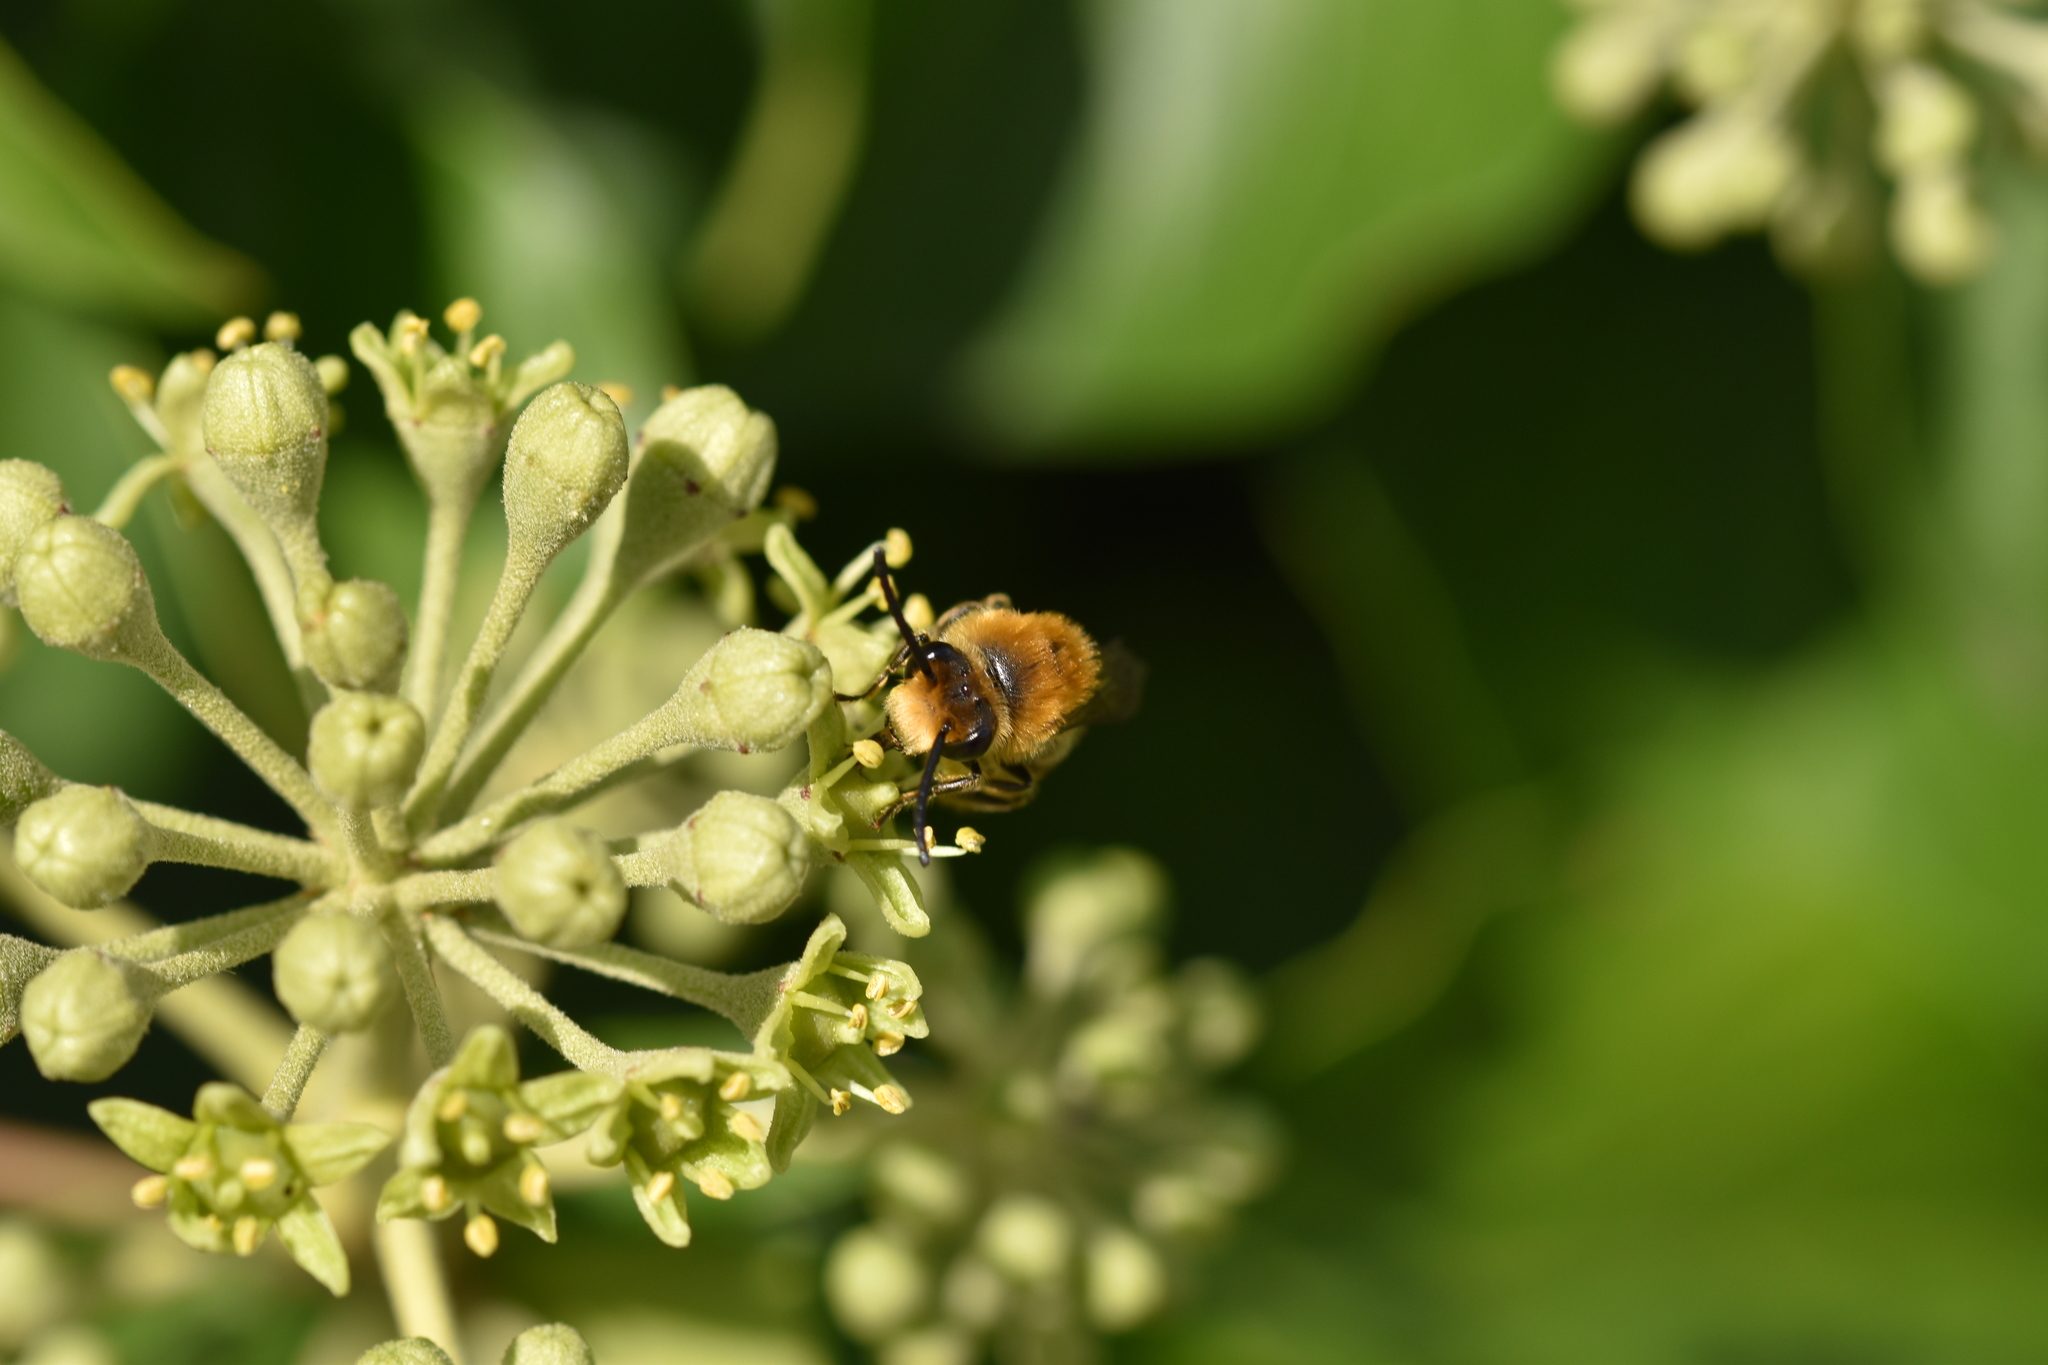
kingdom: Animalia
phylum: Arthropoda
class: Insecta
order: Hymenoptera
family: Colletidae
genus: Colletes
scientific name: Colletes hederae
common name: Ivy bee
